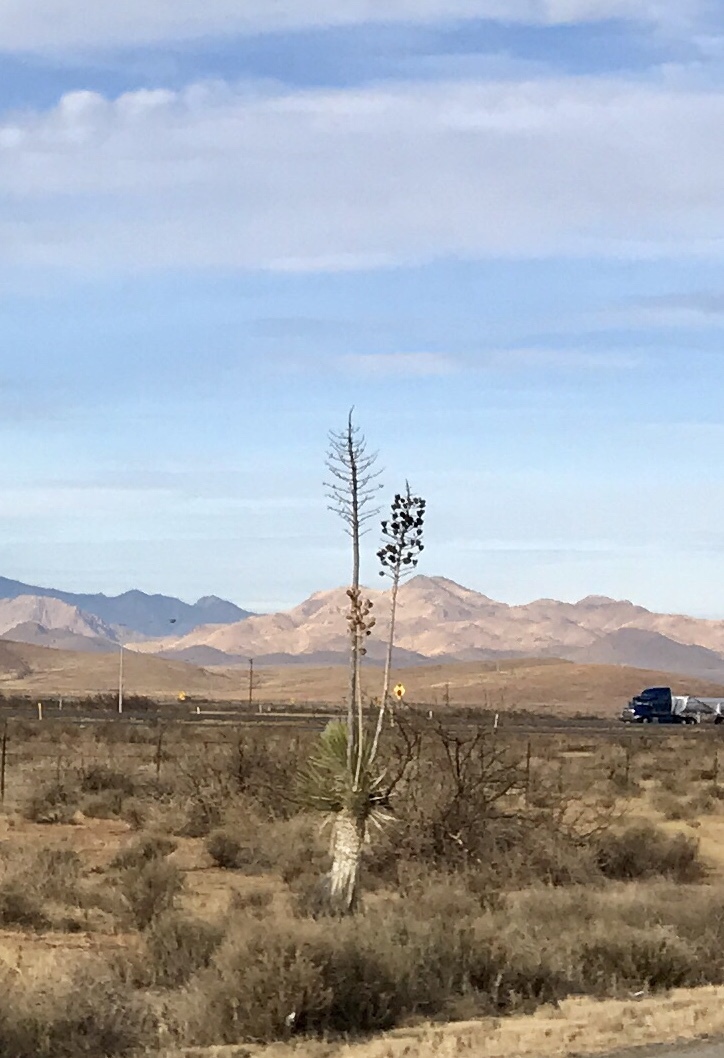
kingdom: Plantae
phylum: Tracheophyta
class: Liliopsida
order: Asparagales
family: Asparagaceae
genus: Yucca
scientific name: Yucca elata
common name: Palmella
